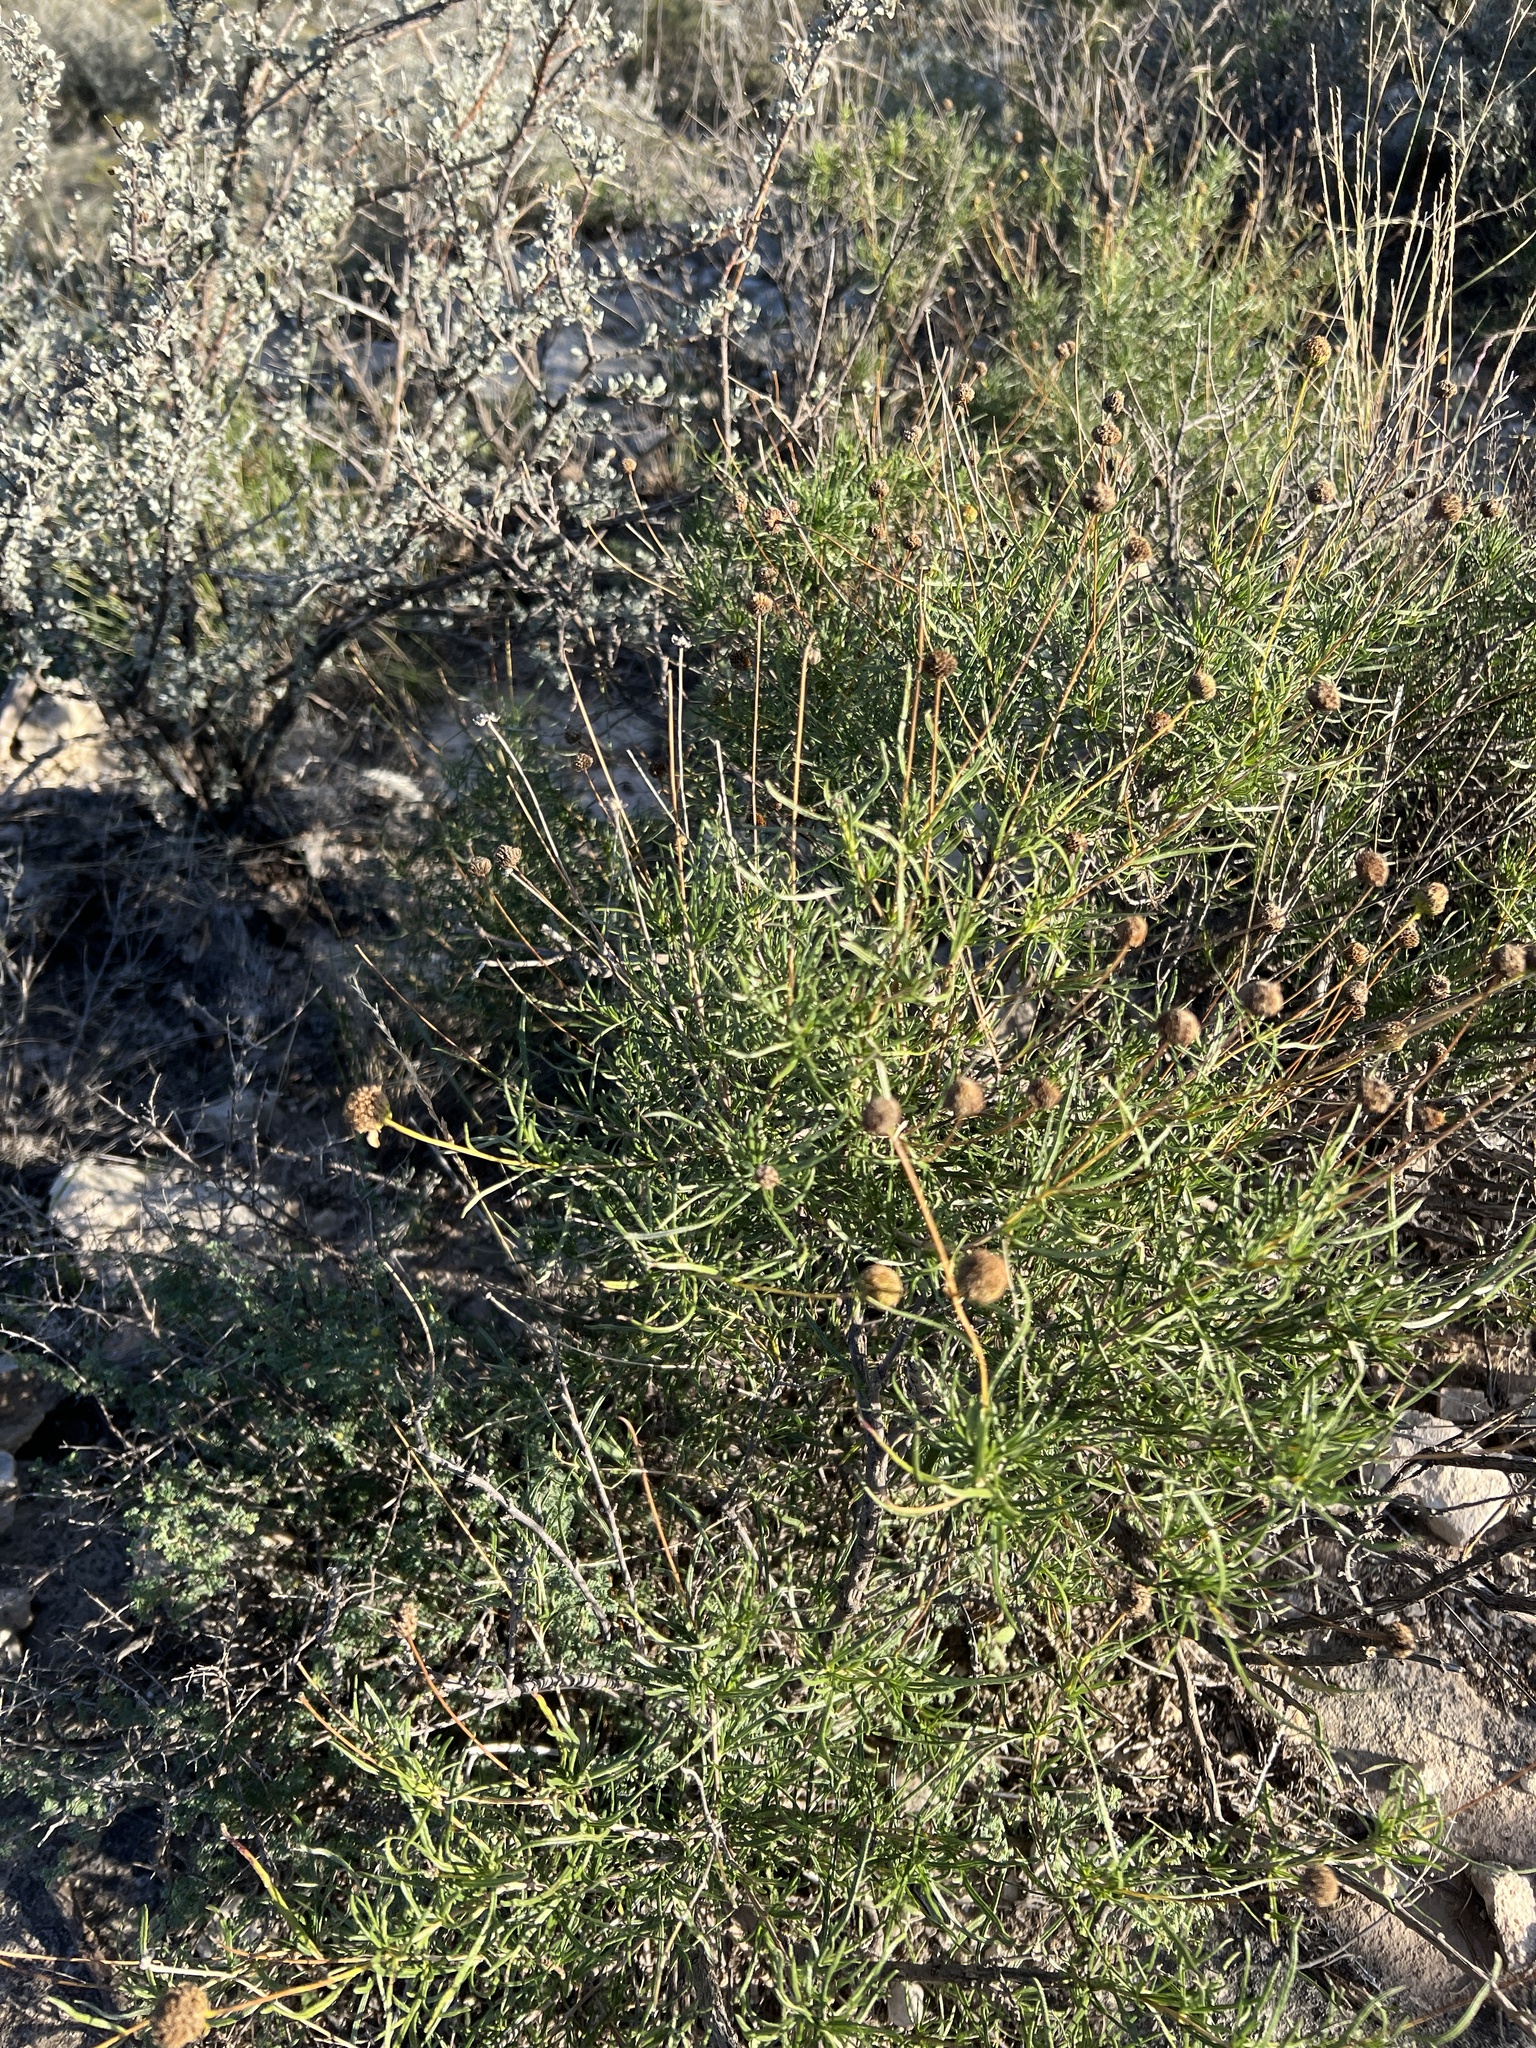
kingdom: Plantae
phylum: Tracheophyta
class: Magnoliopsida
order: Asterales
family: Asteraceae
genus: Sidneya
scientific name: Sidneya tenuifolia
